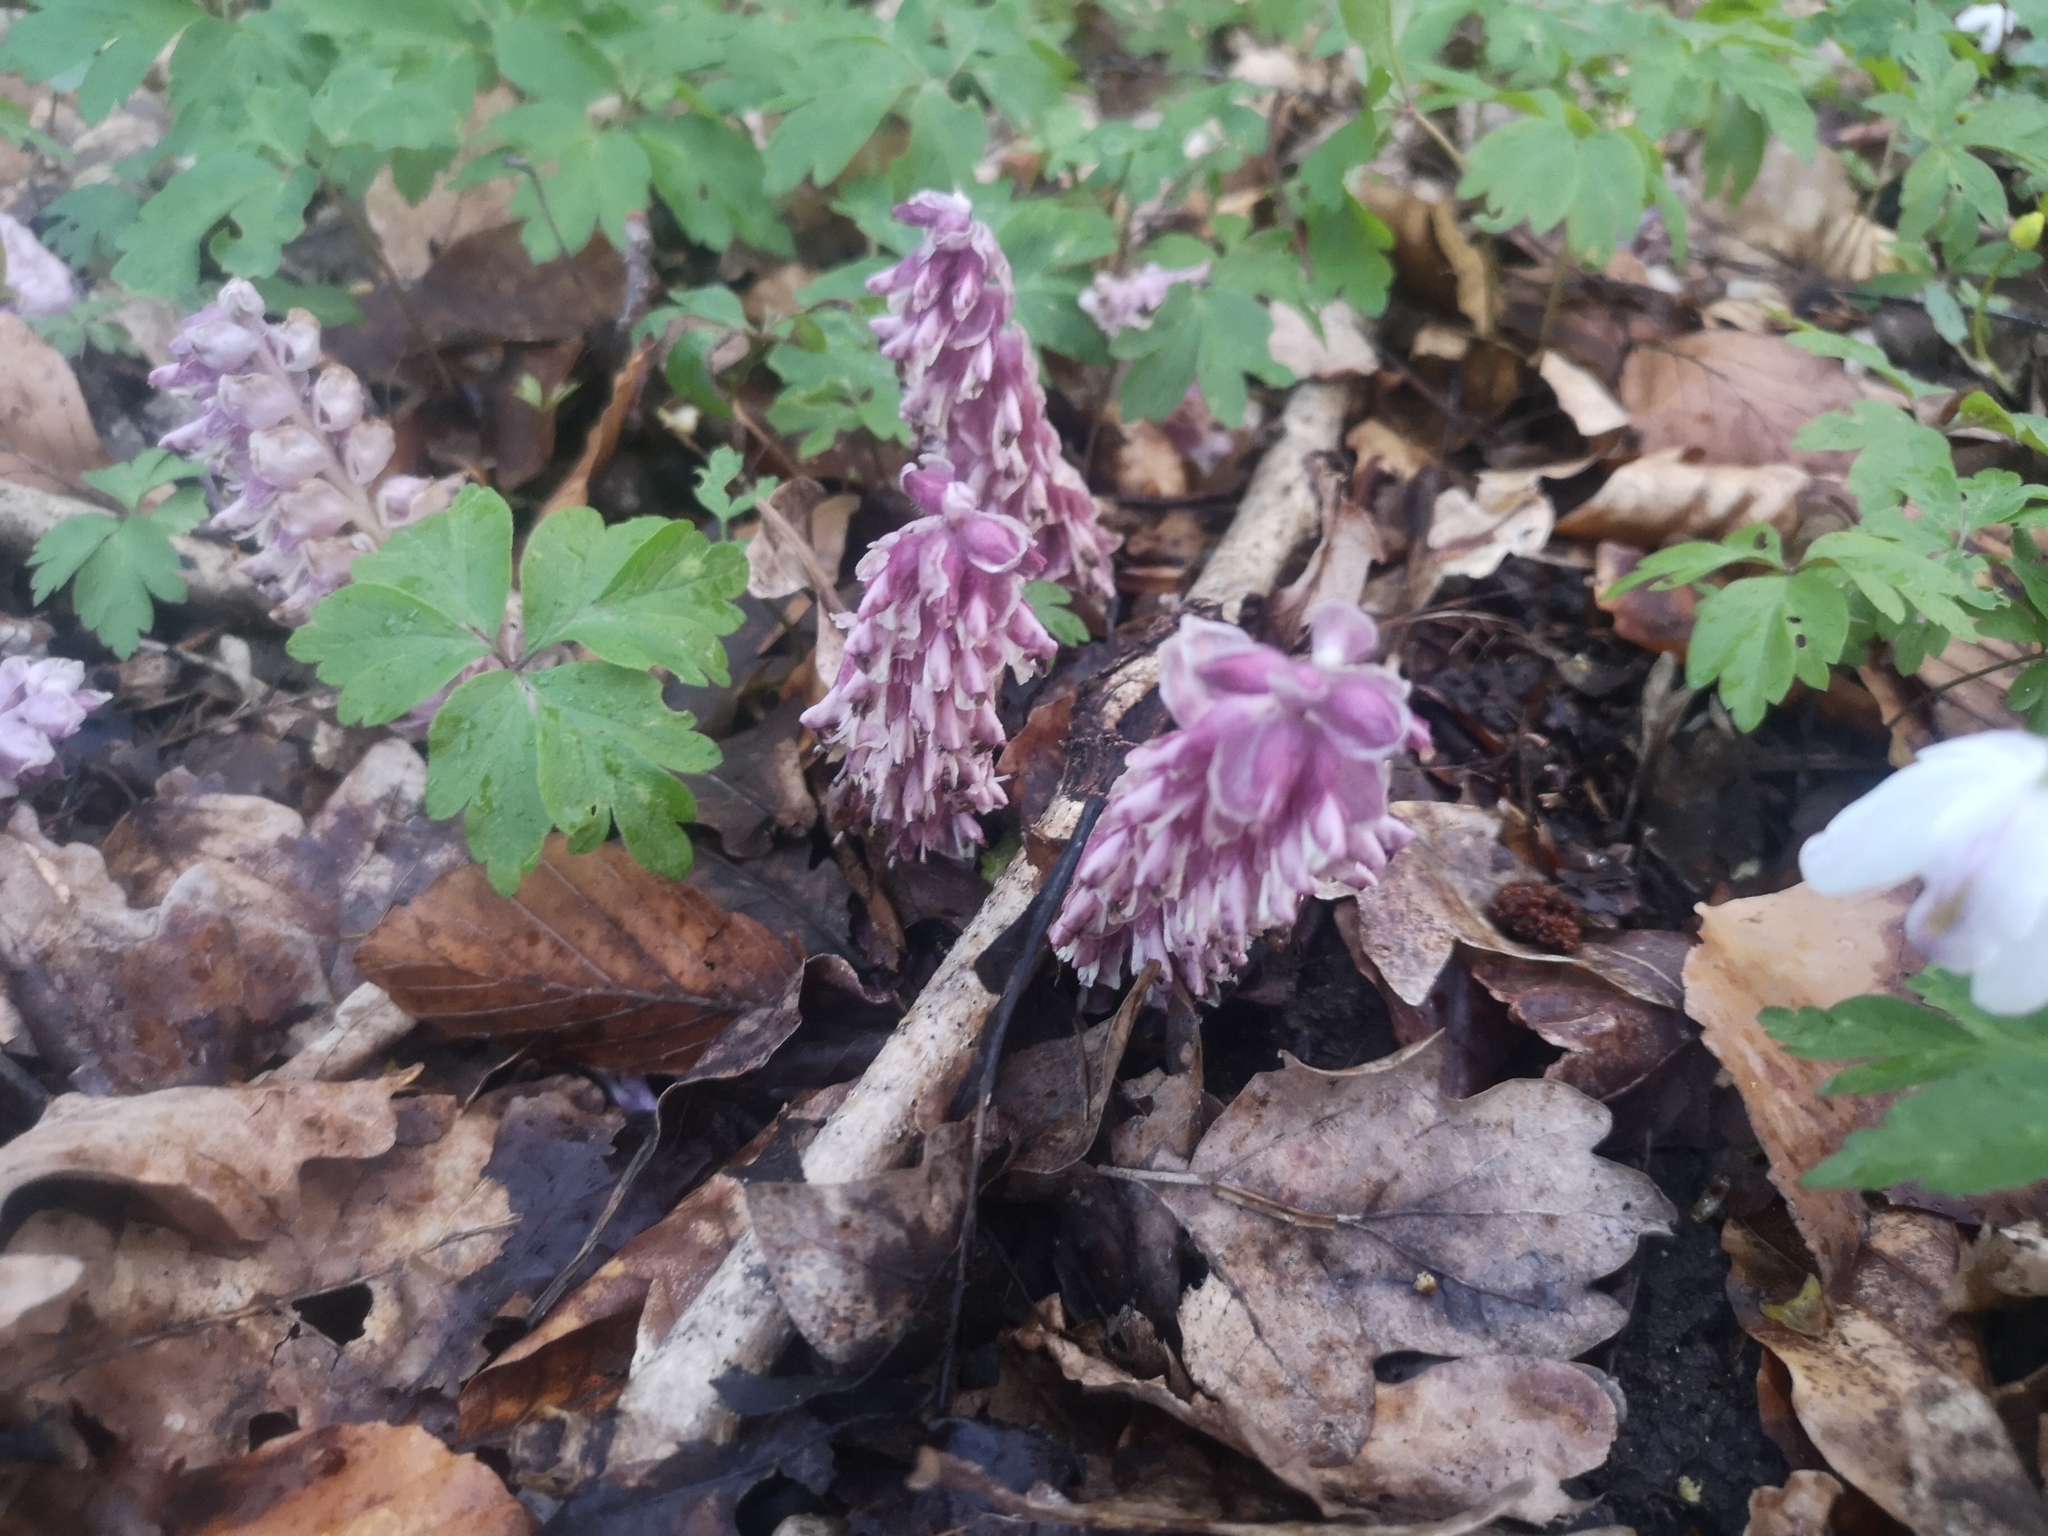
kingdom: Plantae
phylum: Tracheophyta
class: Magnoliopsida
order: Lamiales
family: Orobanchaceae
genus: Lathraea
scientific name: Lathraea squamaria
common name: Toothwort
